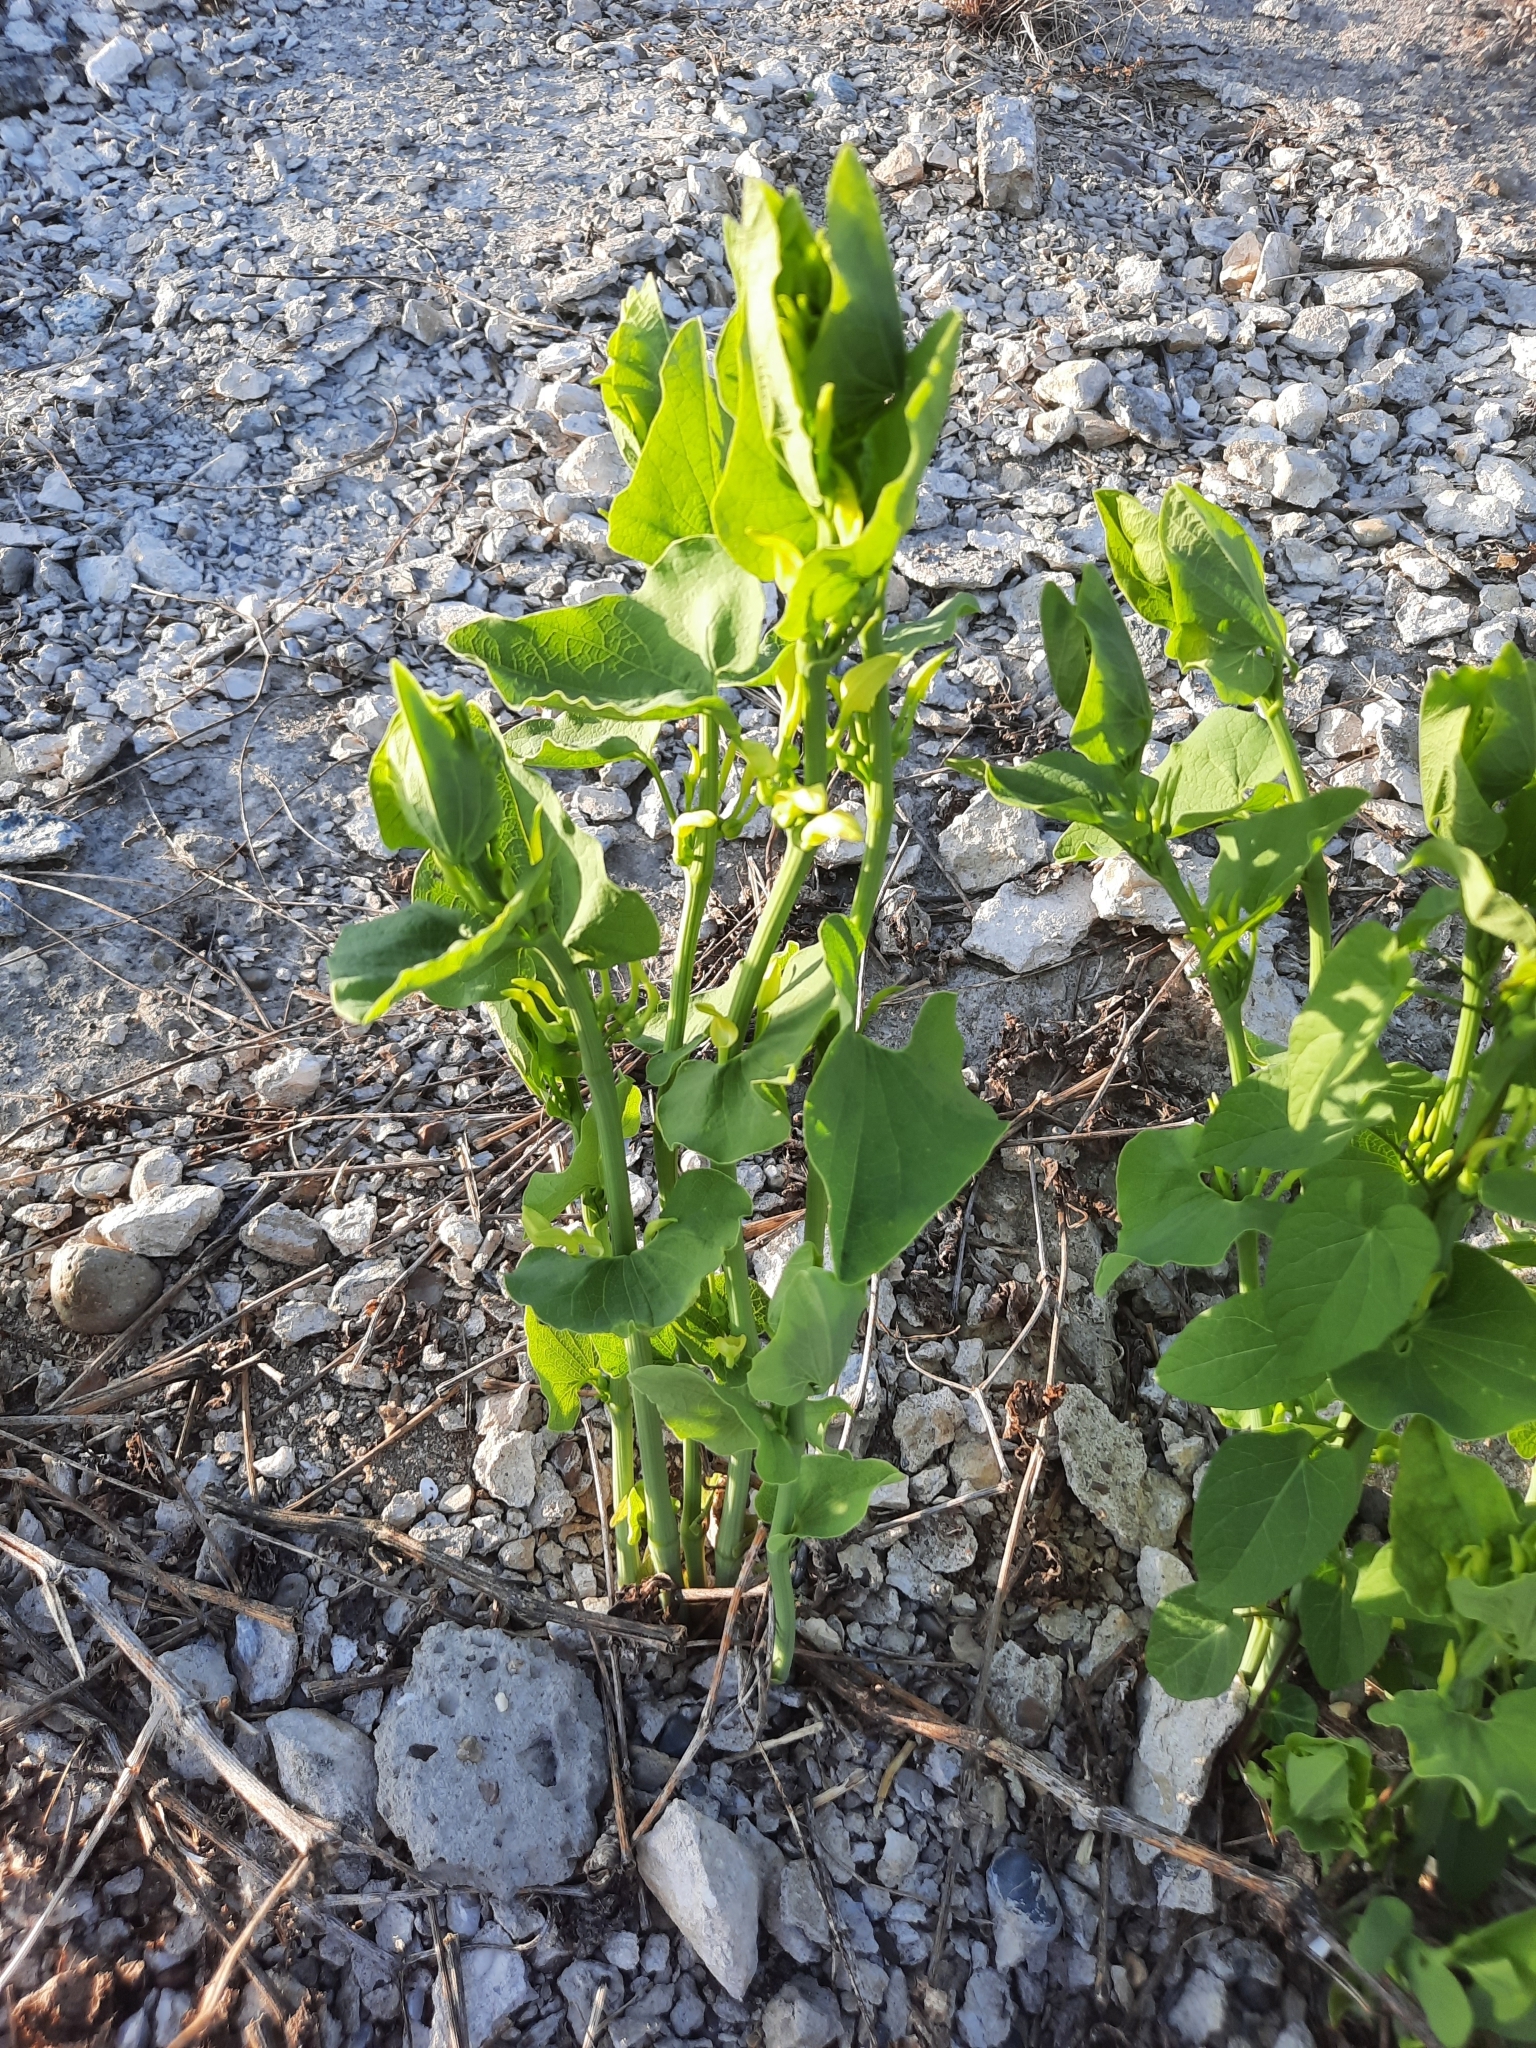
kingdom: Plantae
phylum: Tracheophyta
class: Magnoliopsida
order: Piperales
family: Aristolochiaceae
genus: Aristolochia
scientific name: Aristolochia clematitis
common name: Birthwort
